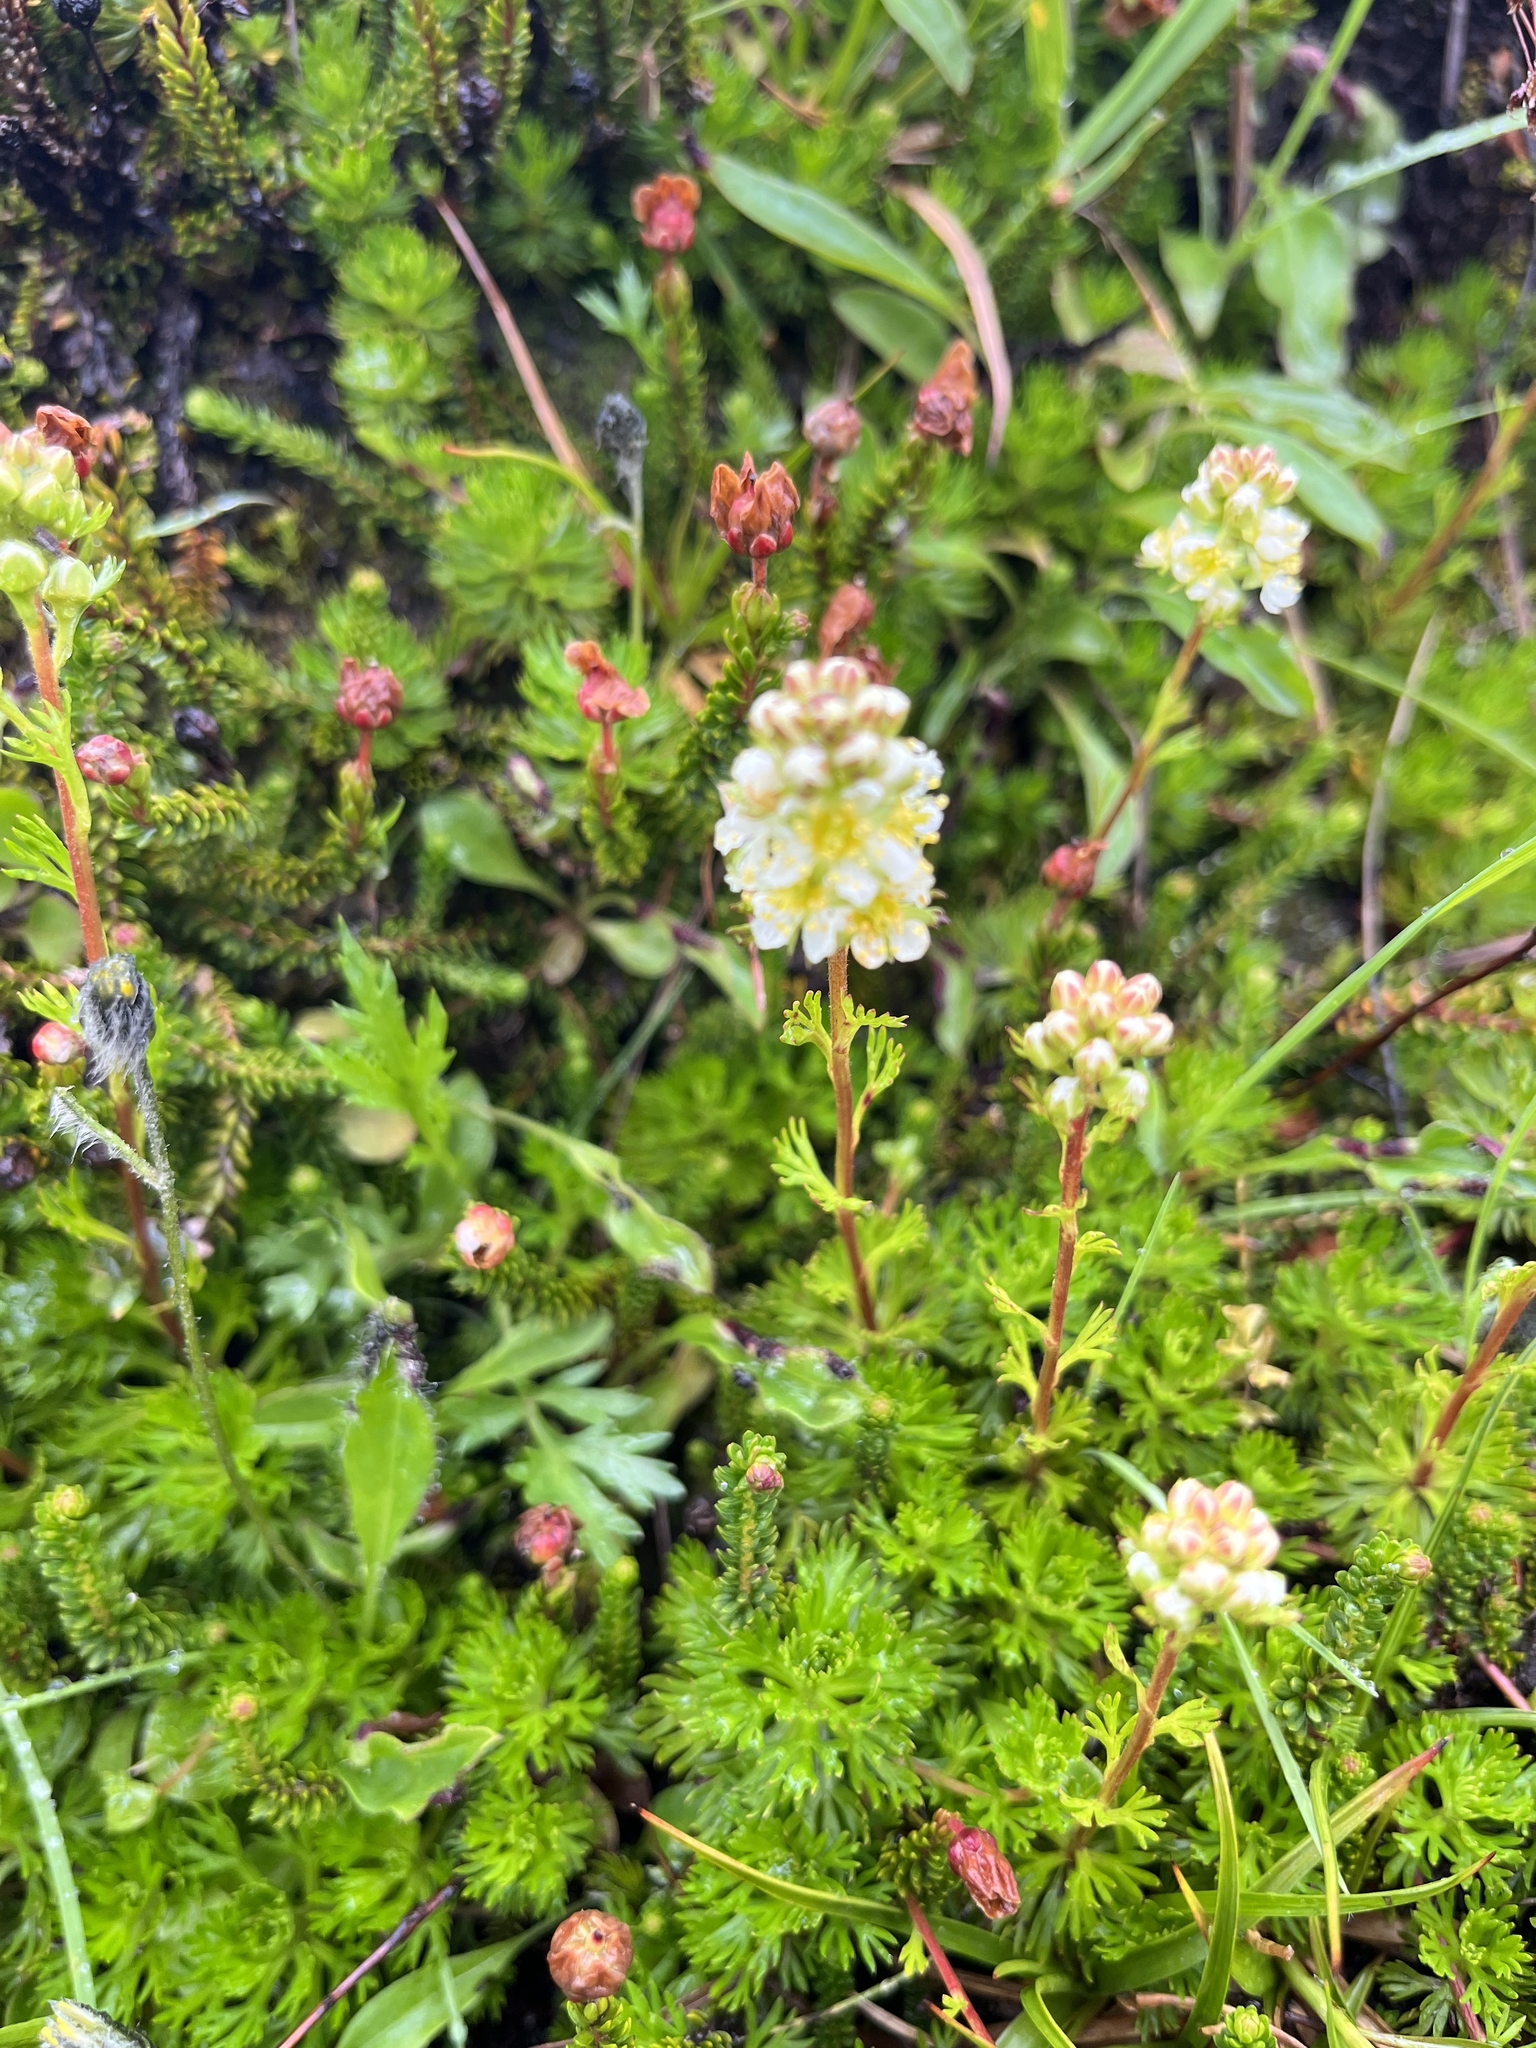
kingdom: Plantae
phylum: Tracheophyta
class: Magnoliopsida
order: Rosales
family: Rosaceae
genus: Luetkea
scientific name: Luetkea pectinata
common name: Partridgefoot
